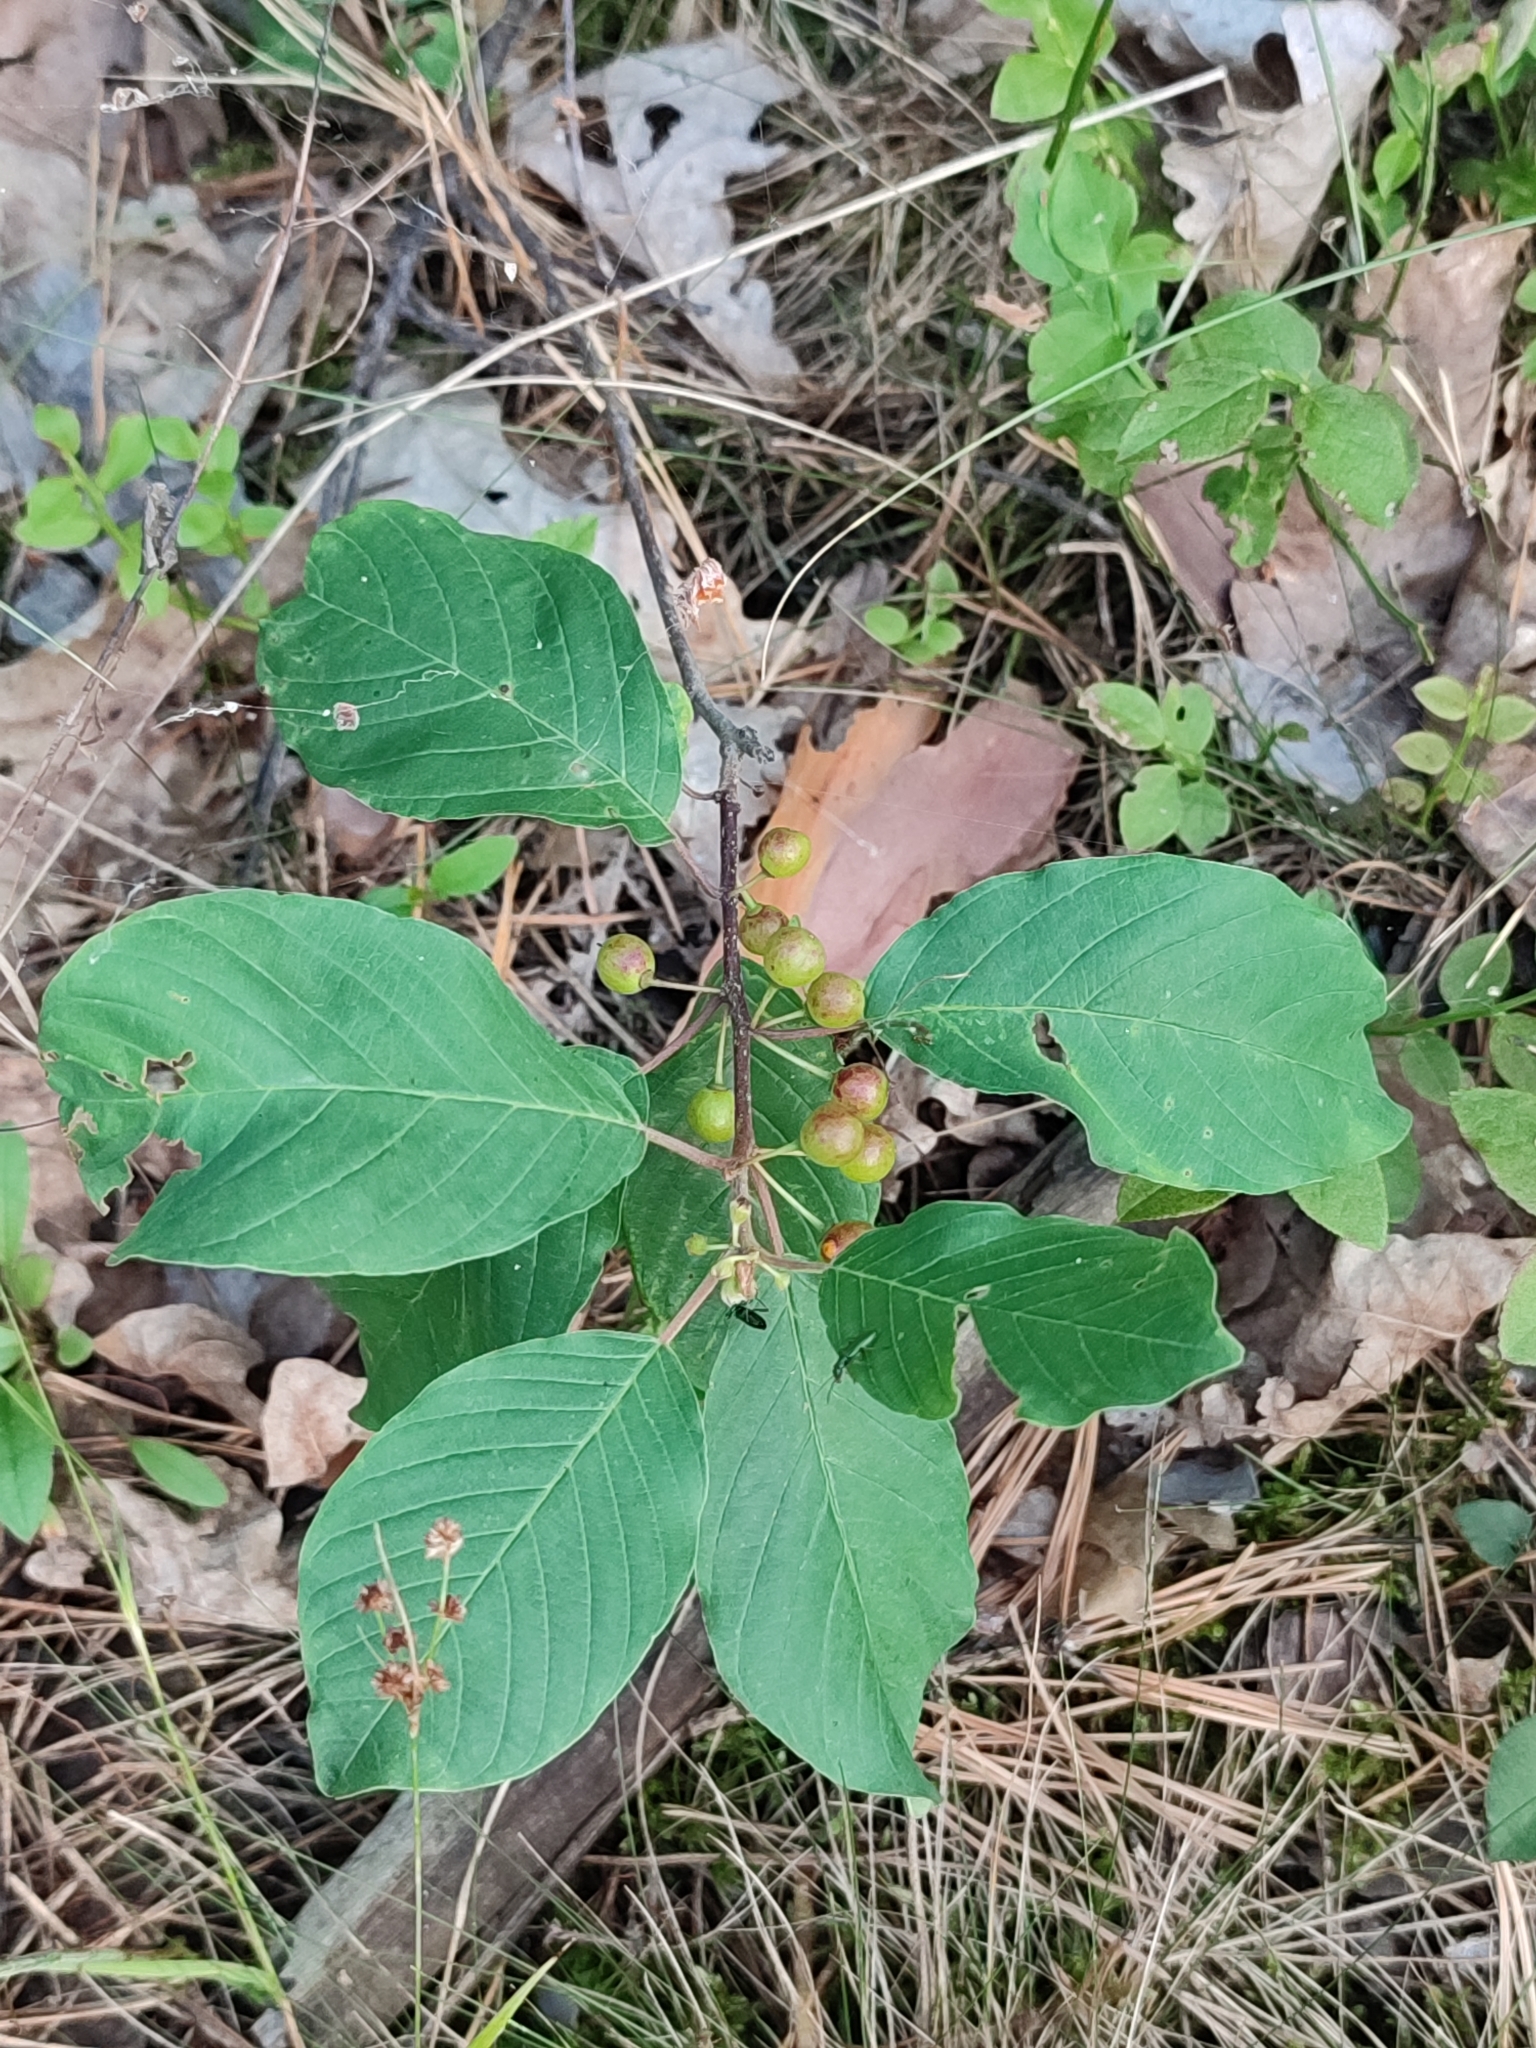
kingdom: Plantae
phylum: Tracheophyta
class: Magnoliopsida
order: Rosales
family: Rhamnaceae
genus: Frangula
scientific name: Frangula alnus
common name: Alder buckthorn
